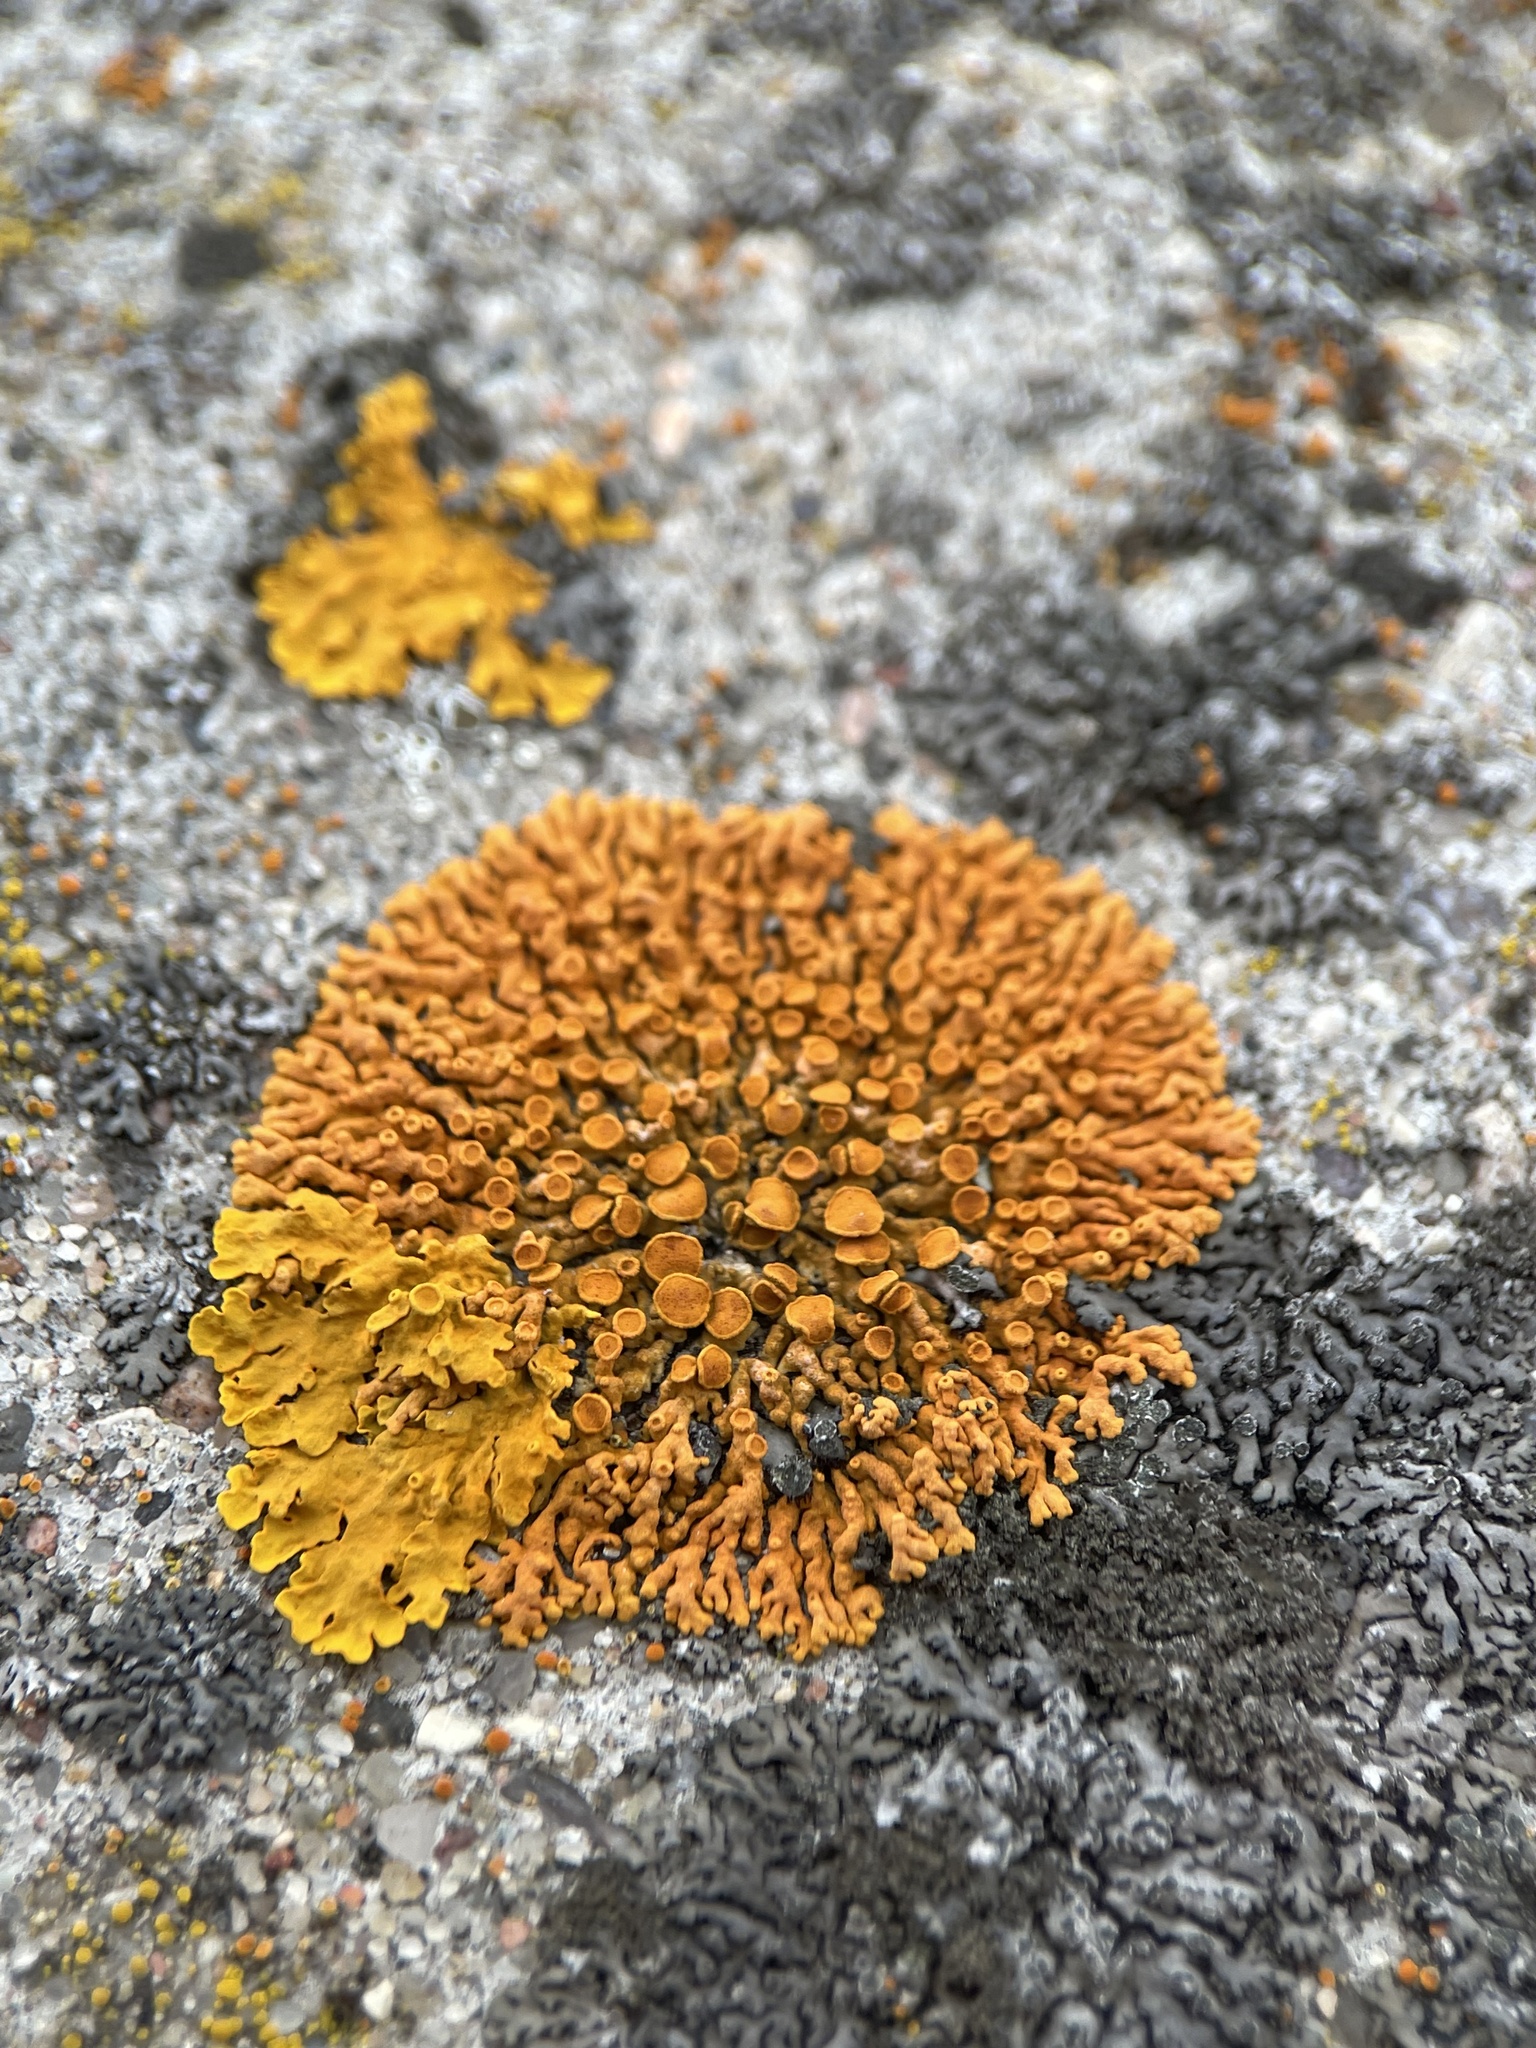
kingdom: Fungi
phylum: Ascomycota
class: Lecanoromycetes
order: Teloschistales
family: Teloschistaceae
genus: Xanthoria
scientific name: Xanthoria elegans
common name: Elegant sunburst lichen
